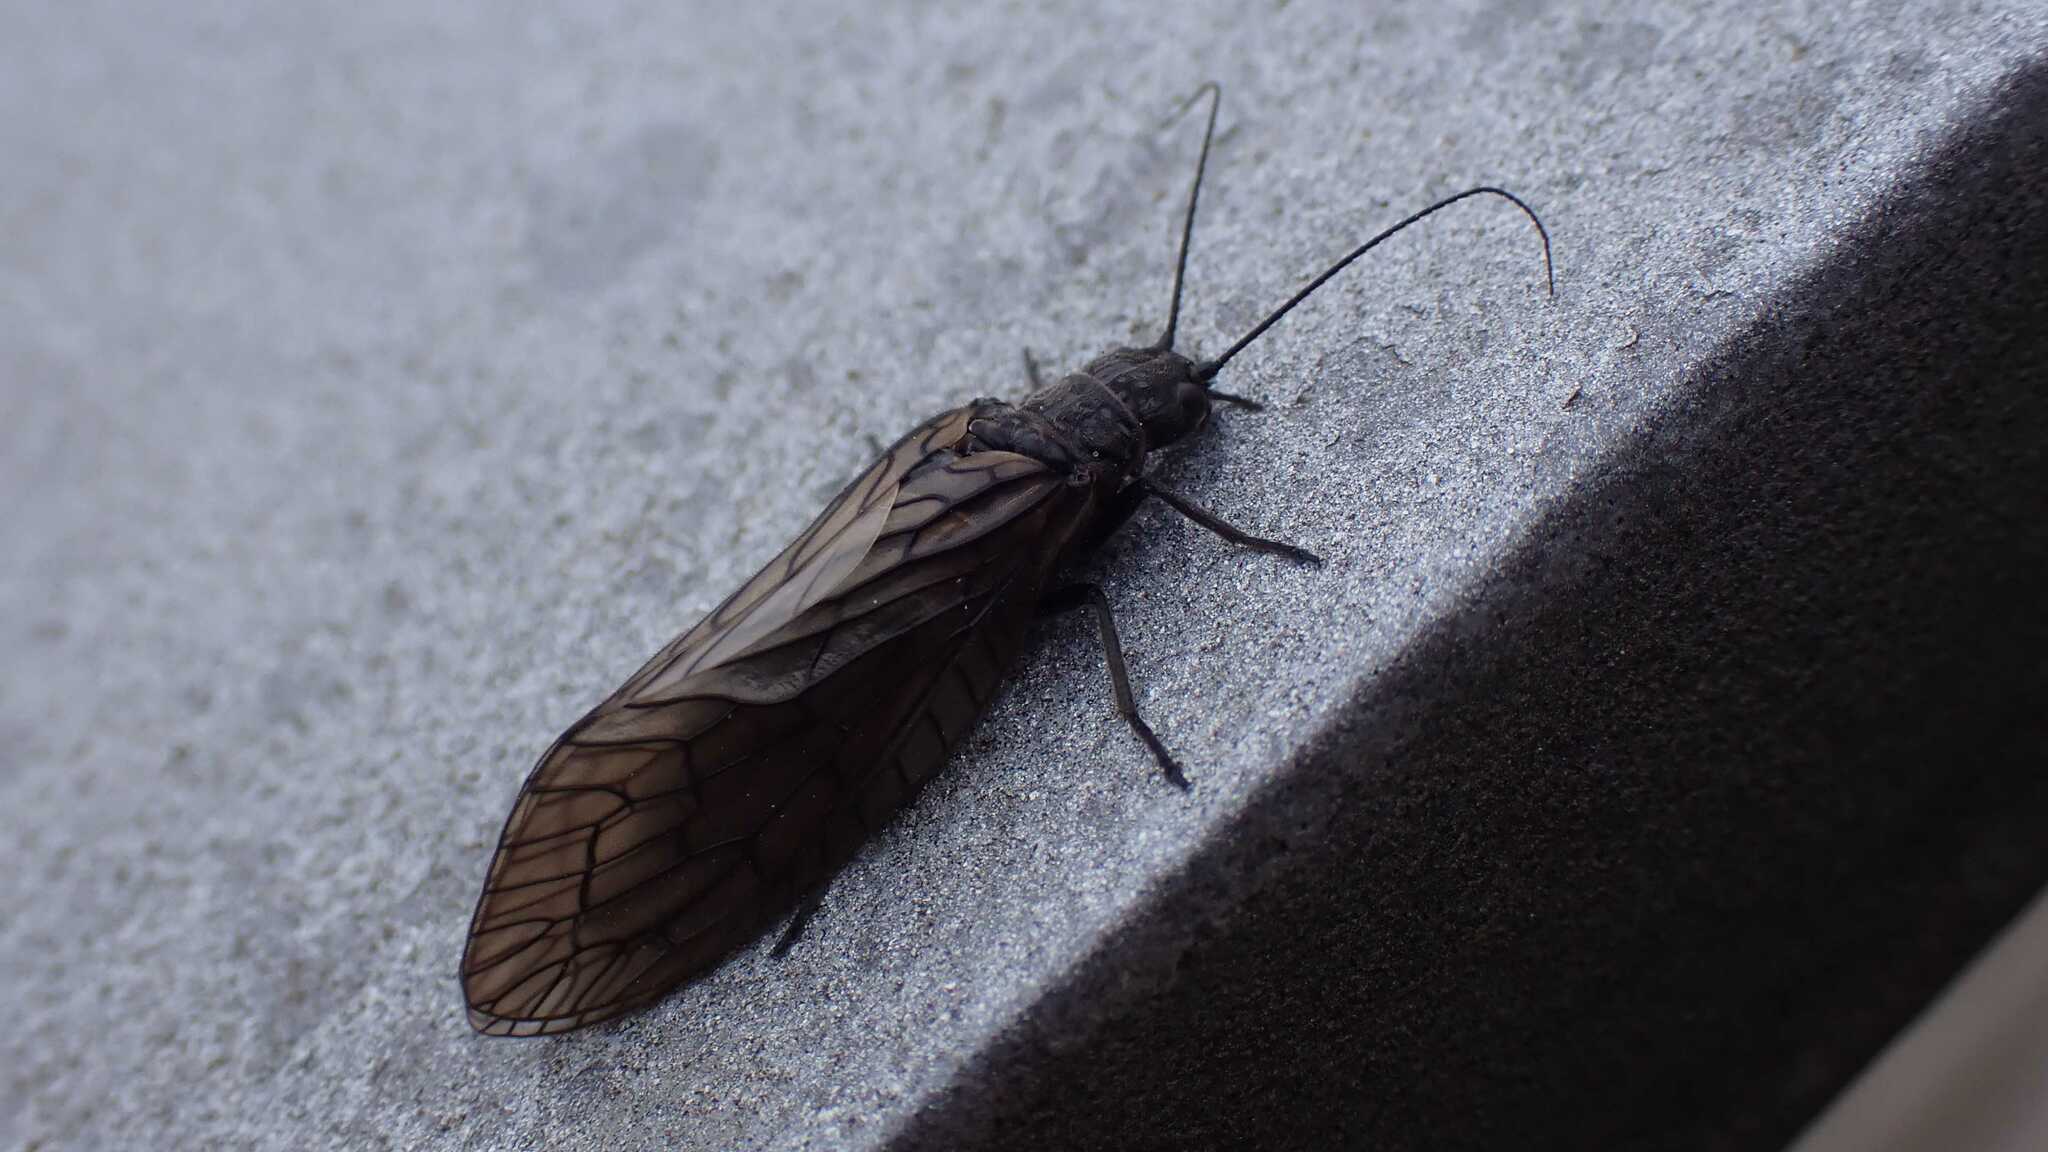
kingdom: Animalia
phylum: Arthropoda
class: Insecta
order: Megaloptera
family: Sialidae
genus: Sialis
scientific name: Sialis
